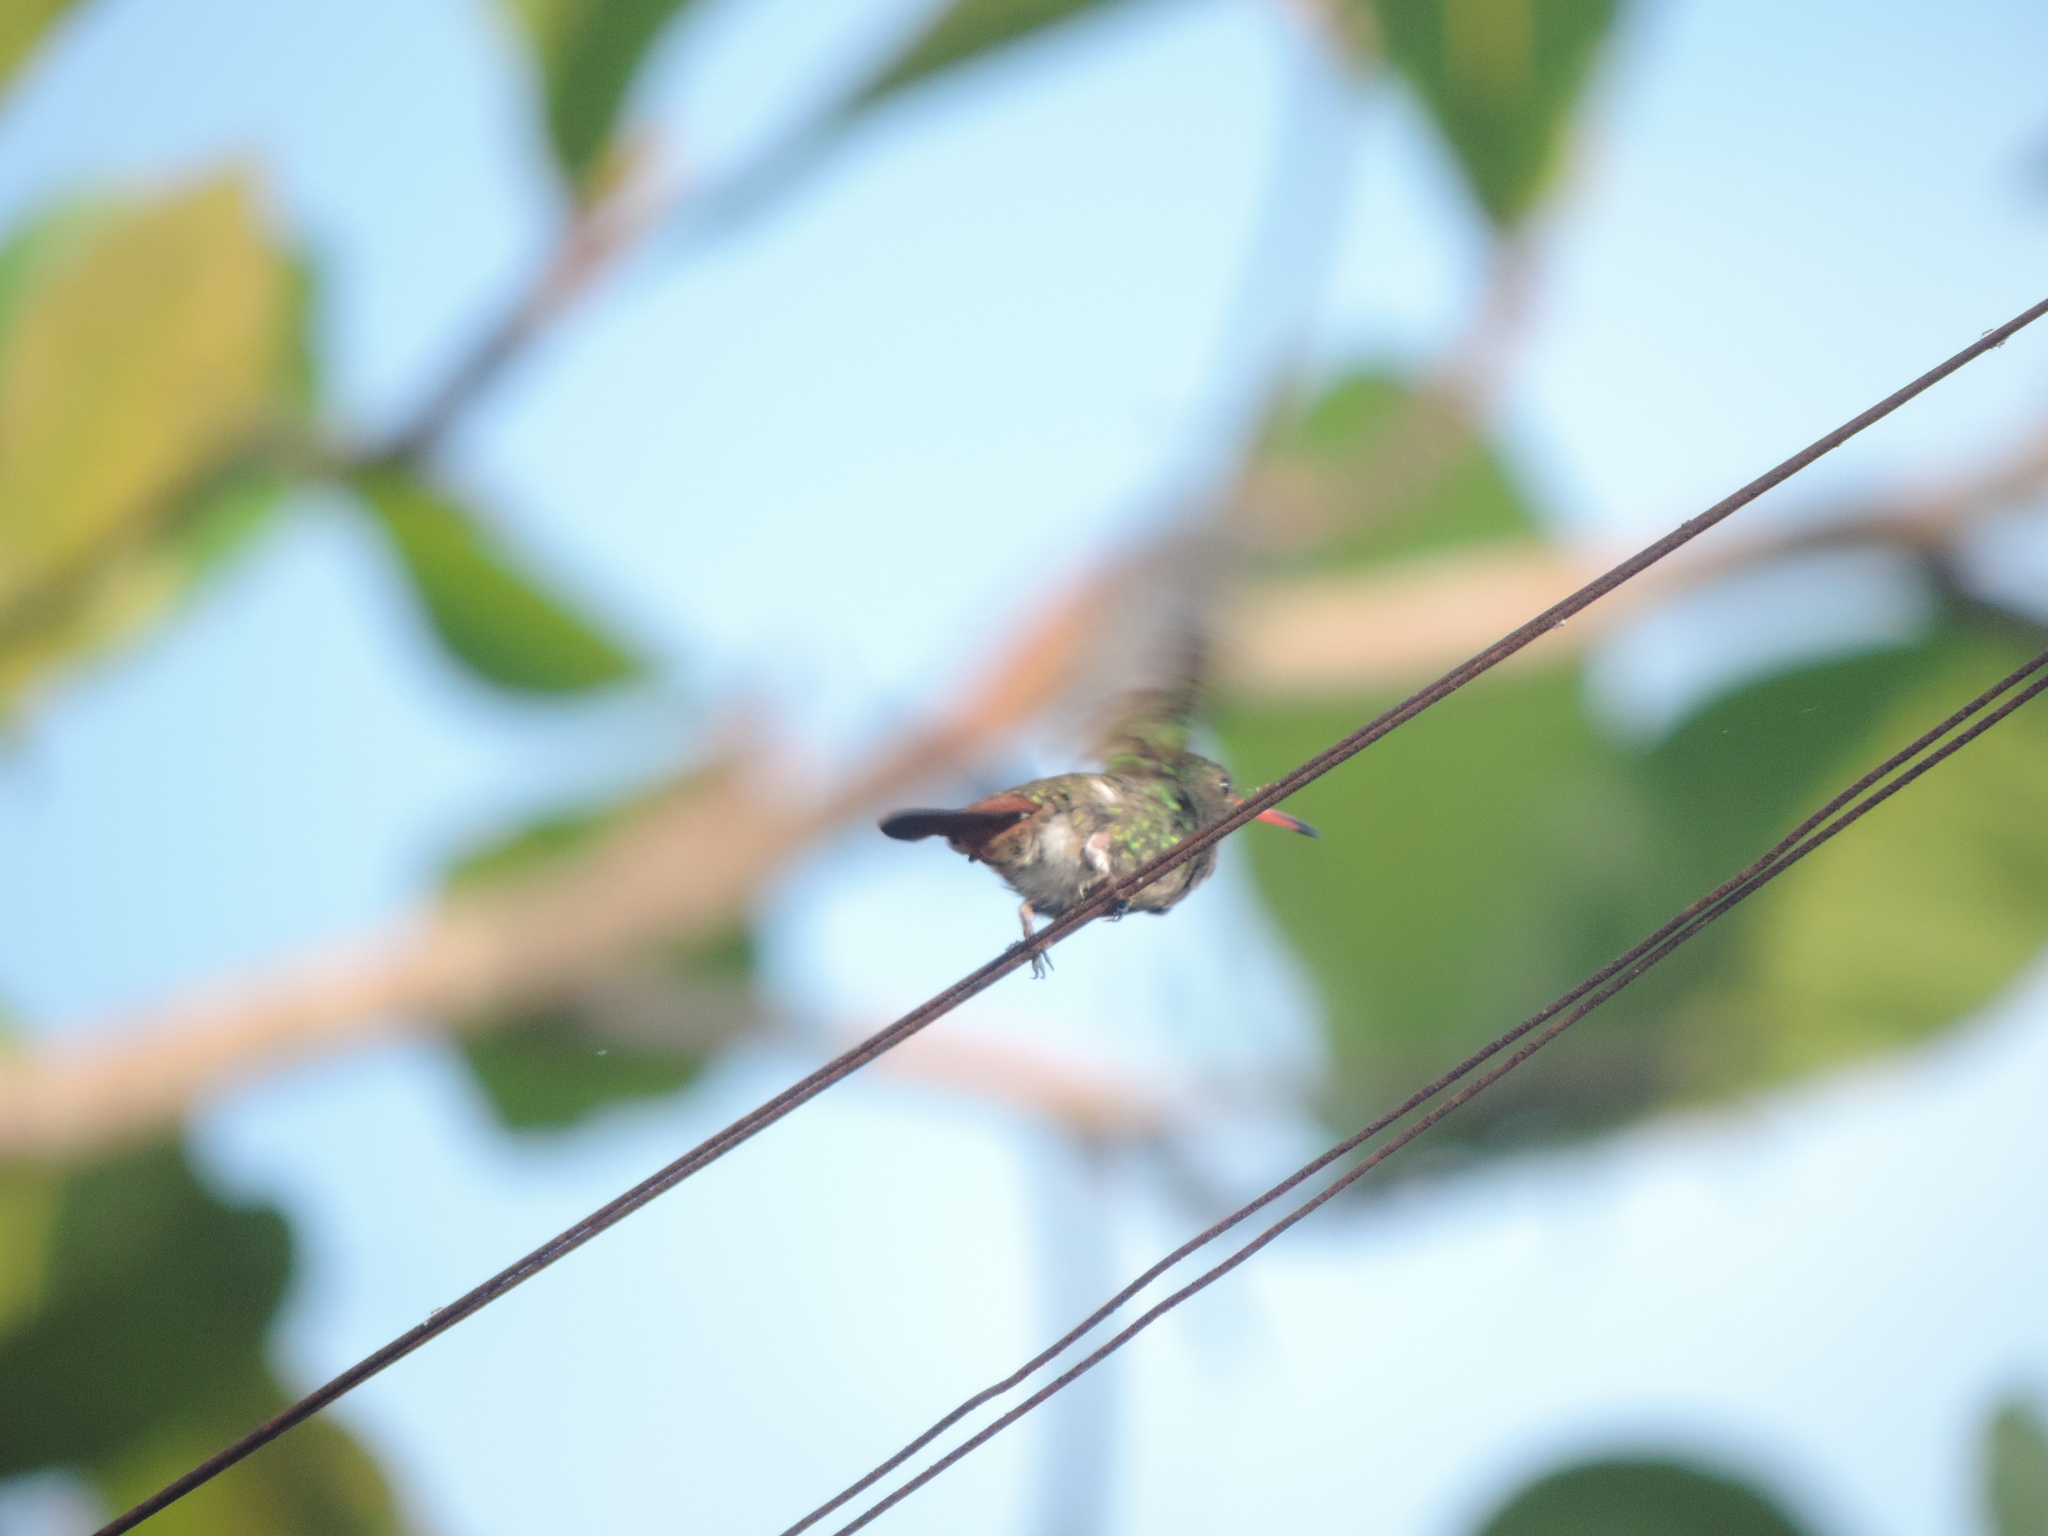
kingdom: Animalia
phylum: Chordata
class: Aves
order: Apodiformes
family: Trochilidae
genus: Amazilia
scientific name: Amazilia tzacatl
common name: Rufous-tailed hummingbird
